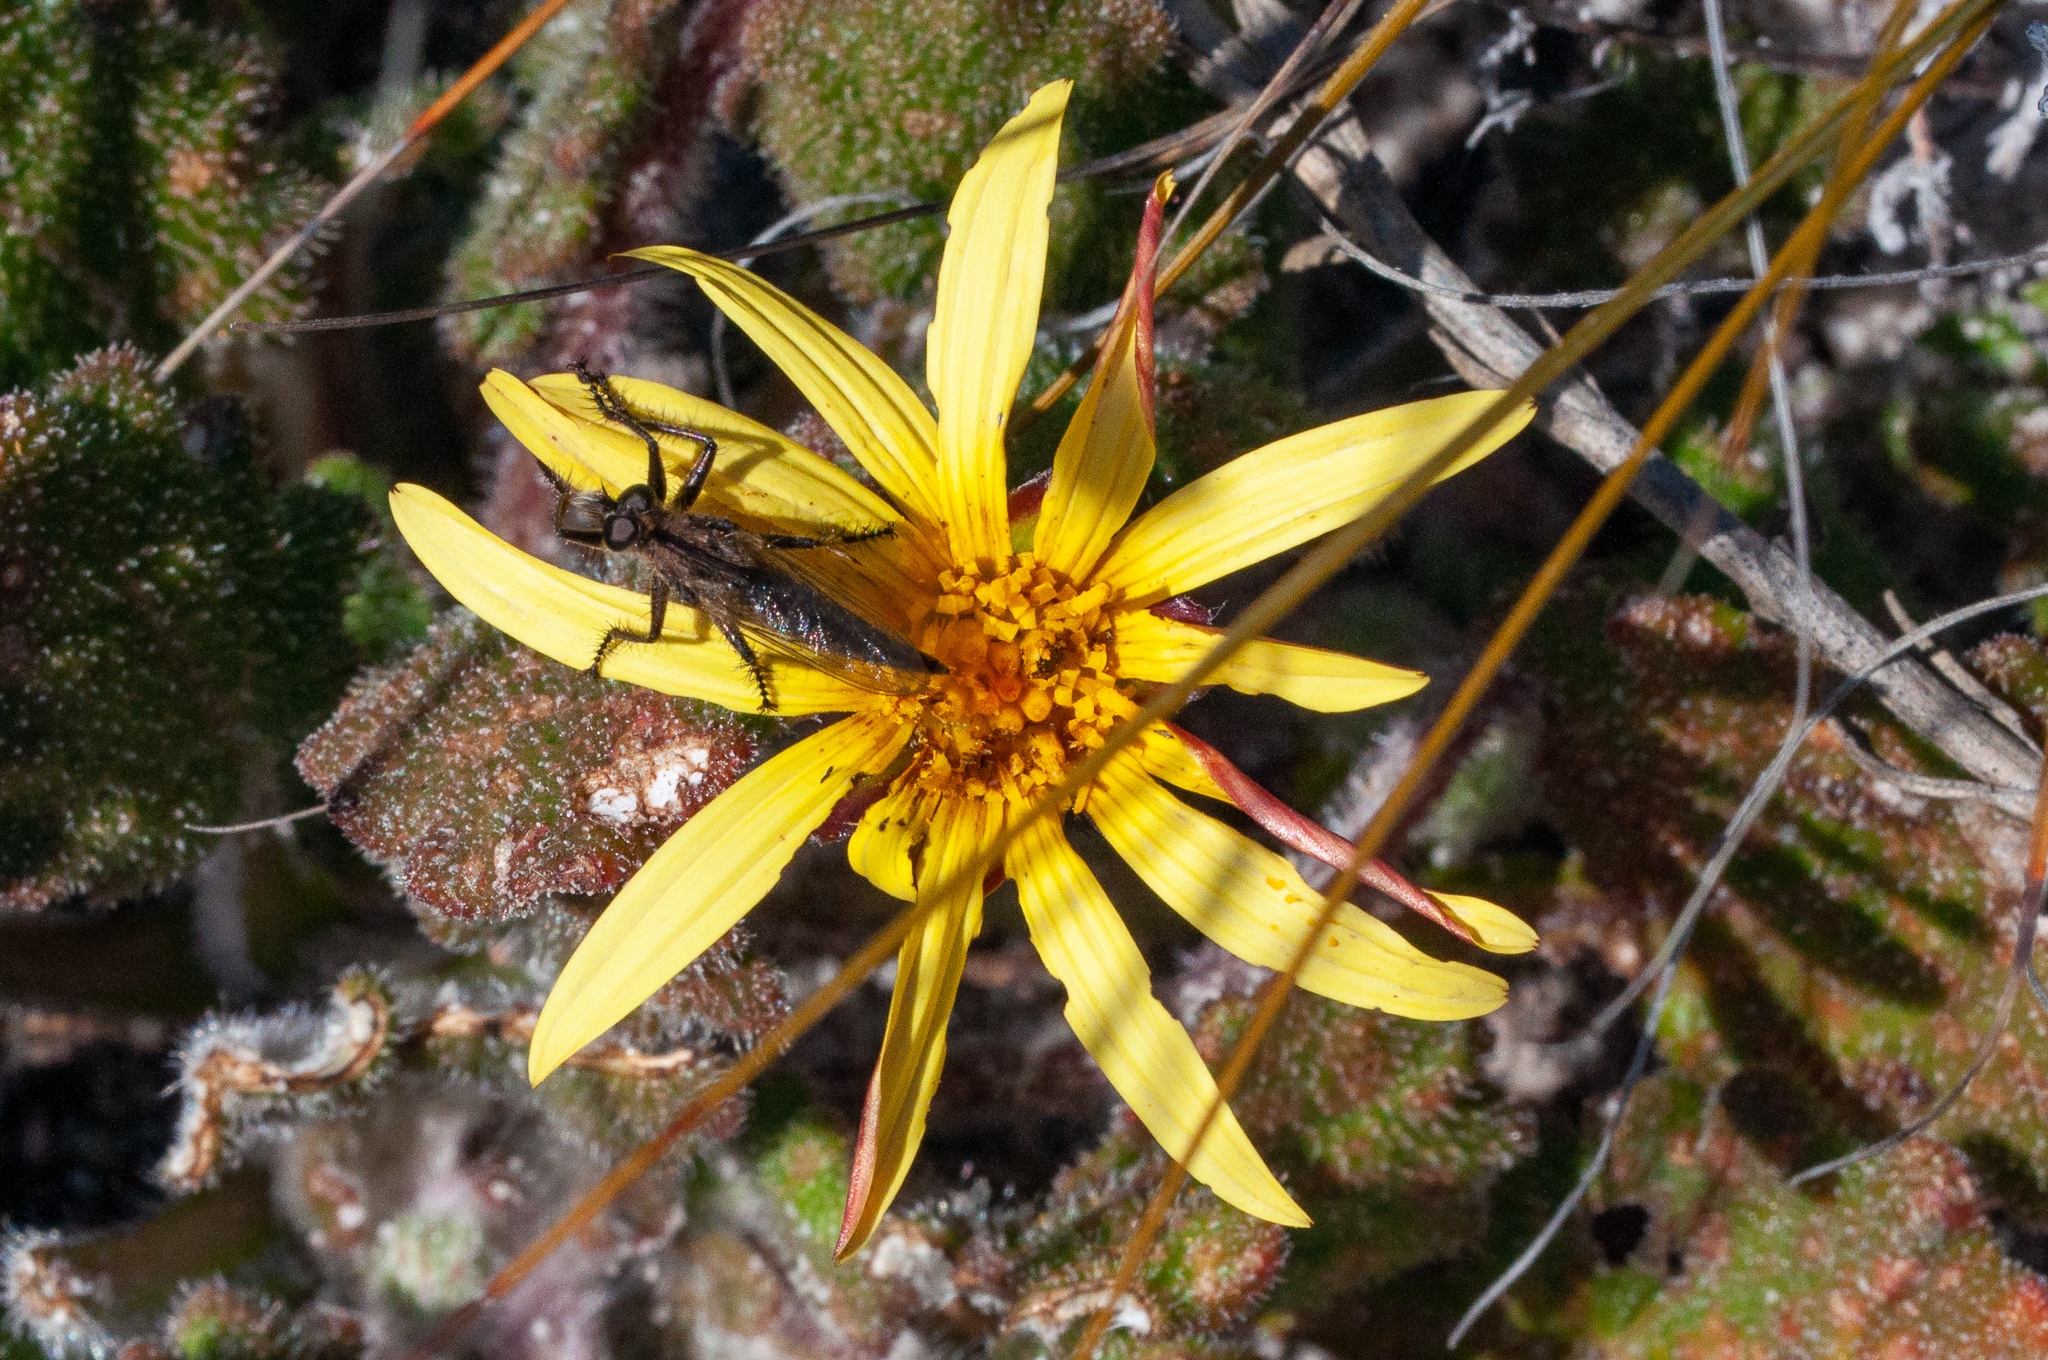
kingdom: Plantae
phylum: Tracheophyta
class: Magnoliopsida
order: Asterales
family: Asteraceae
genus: Haplocarpha
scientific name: Haplocarpha oocephala
